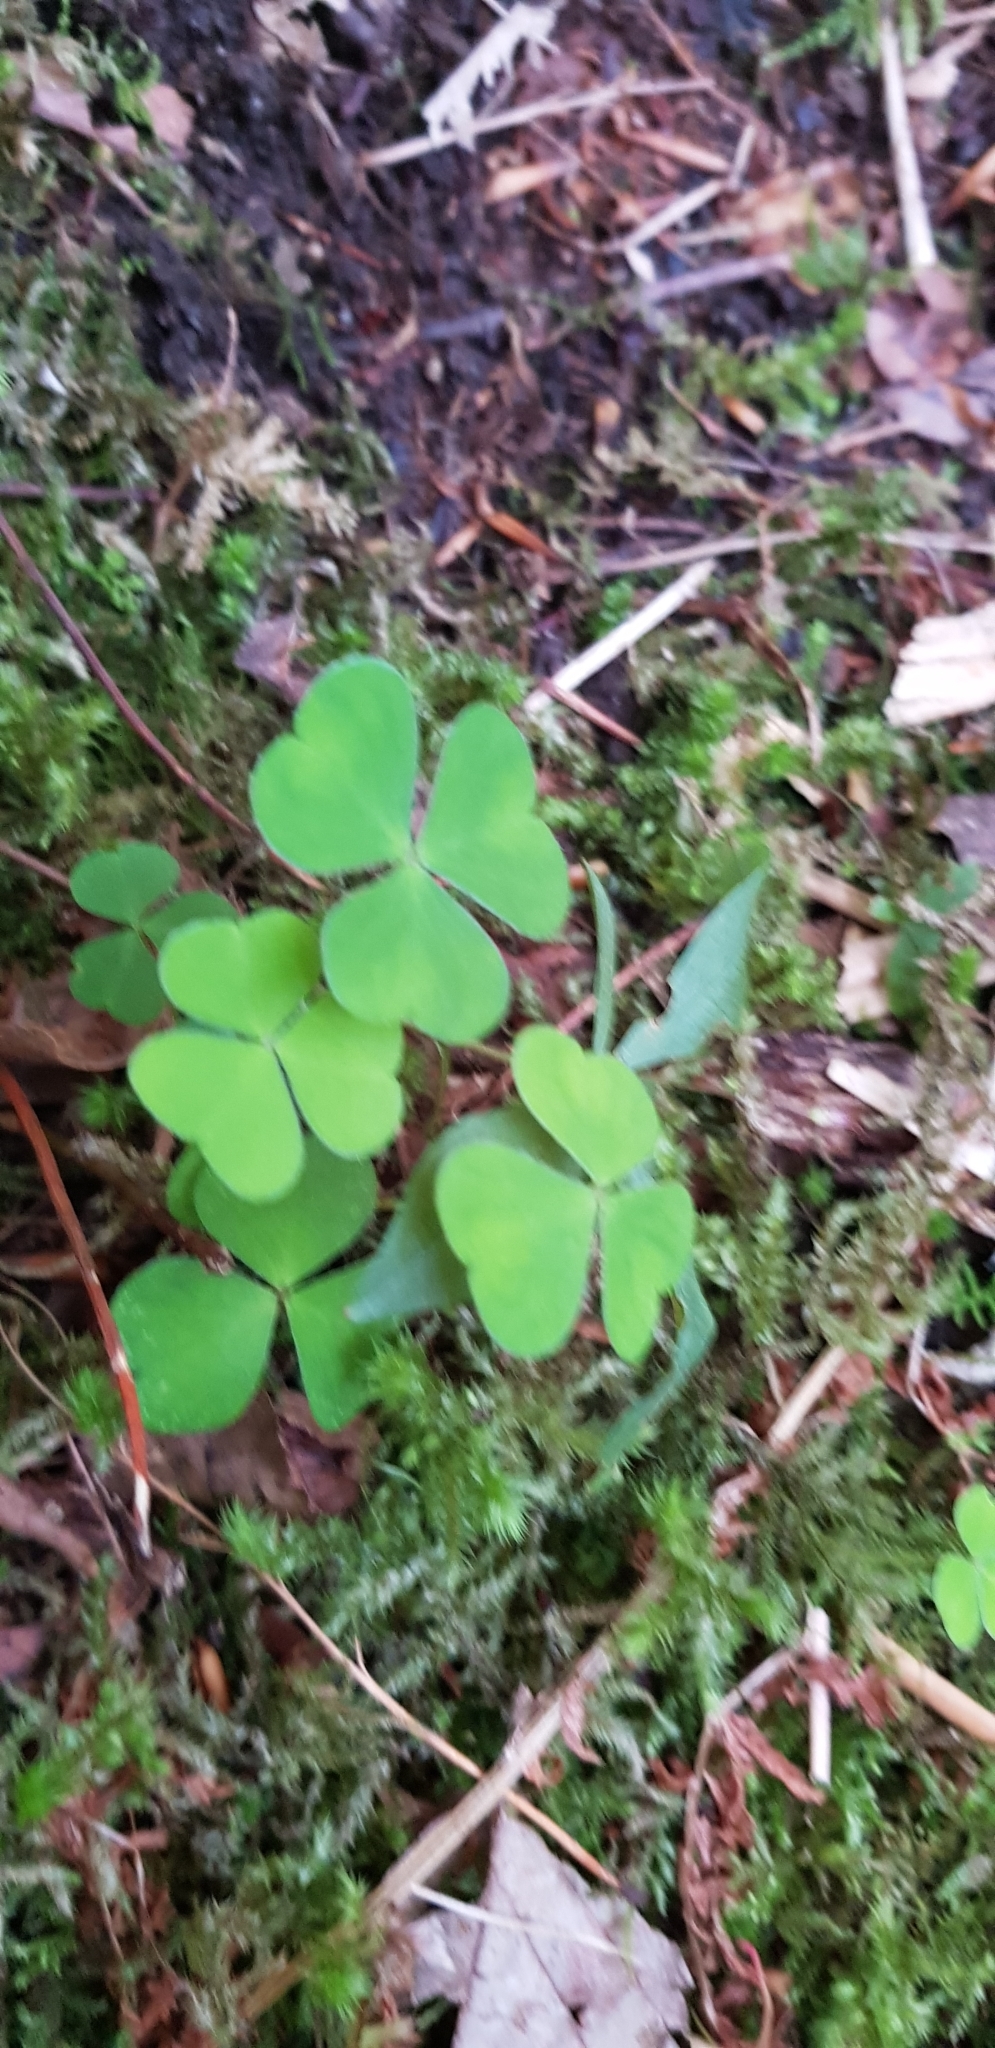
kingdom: Plantae
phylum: Tracheophyta
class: Magnoliopsida
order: Oxalidales
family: Oxalidaceae
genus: Oxalis
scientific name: Oxalis acetosella
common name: Wood-sorrel
